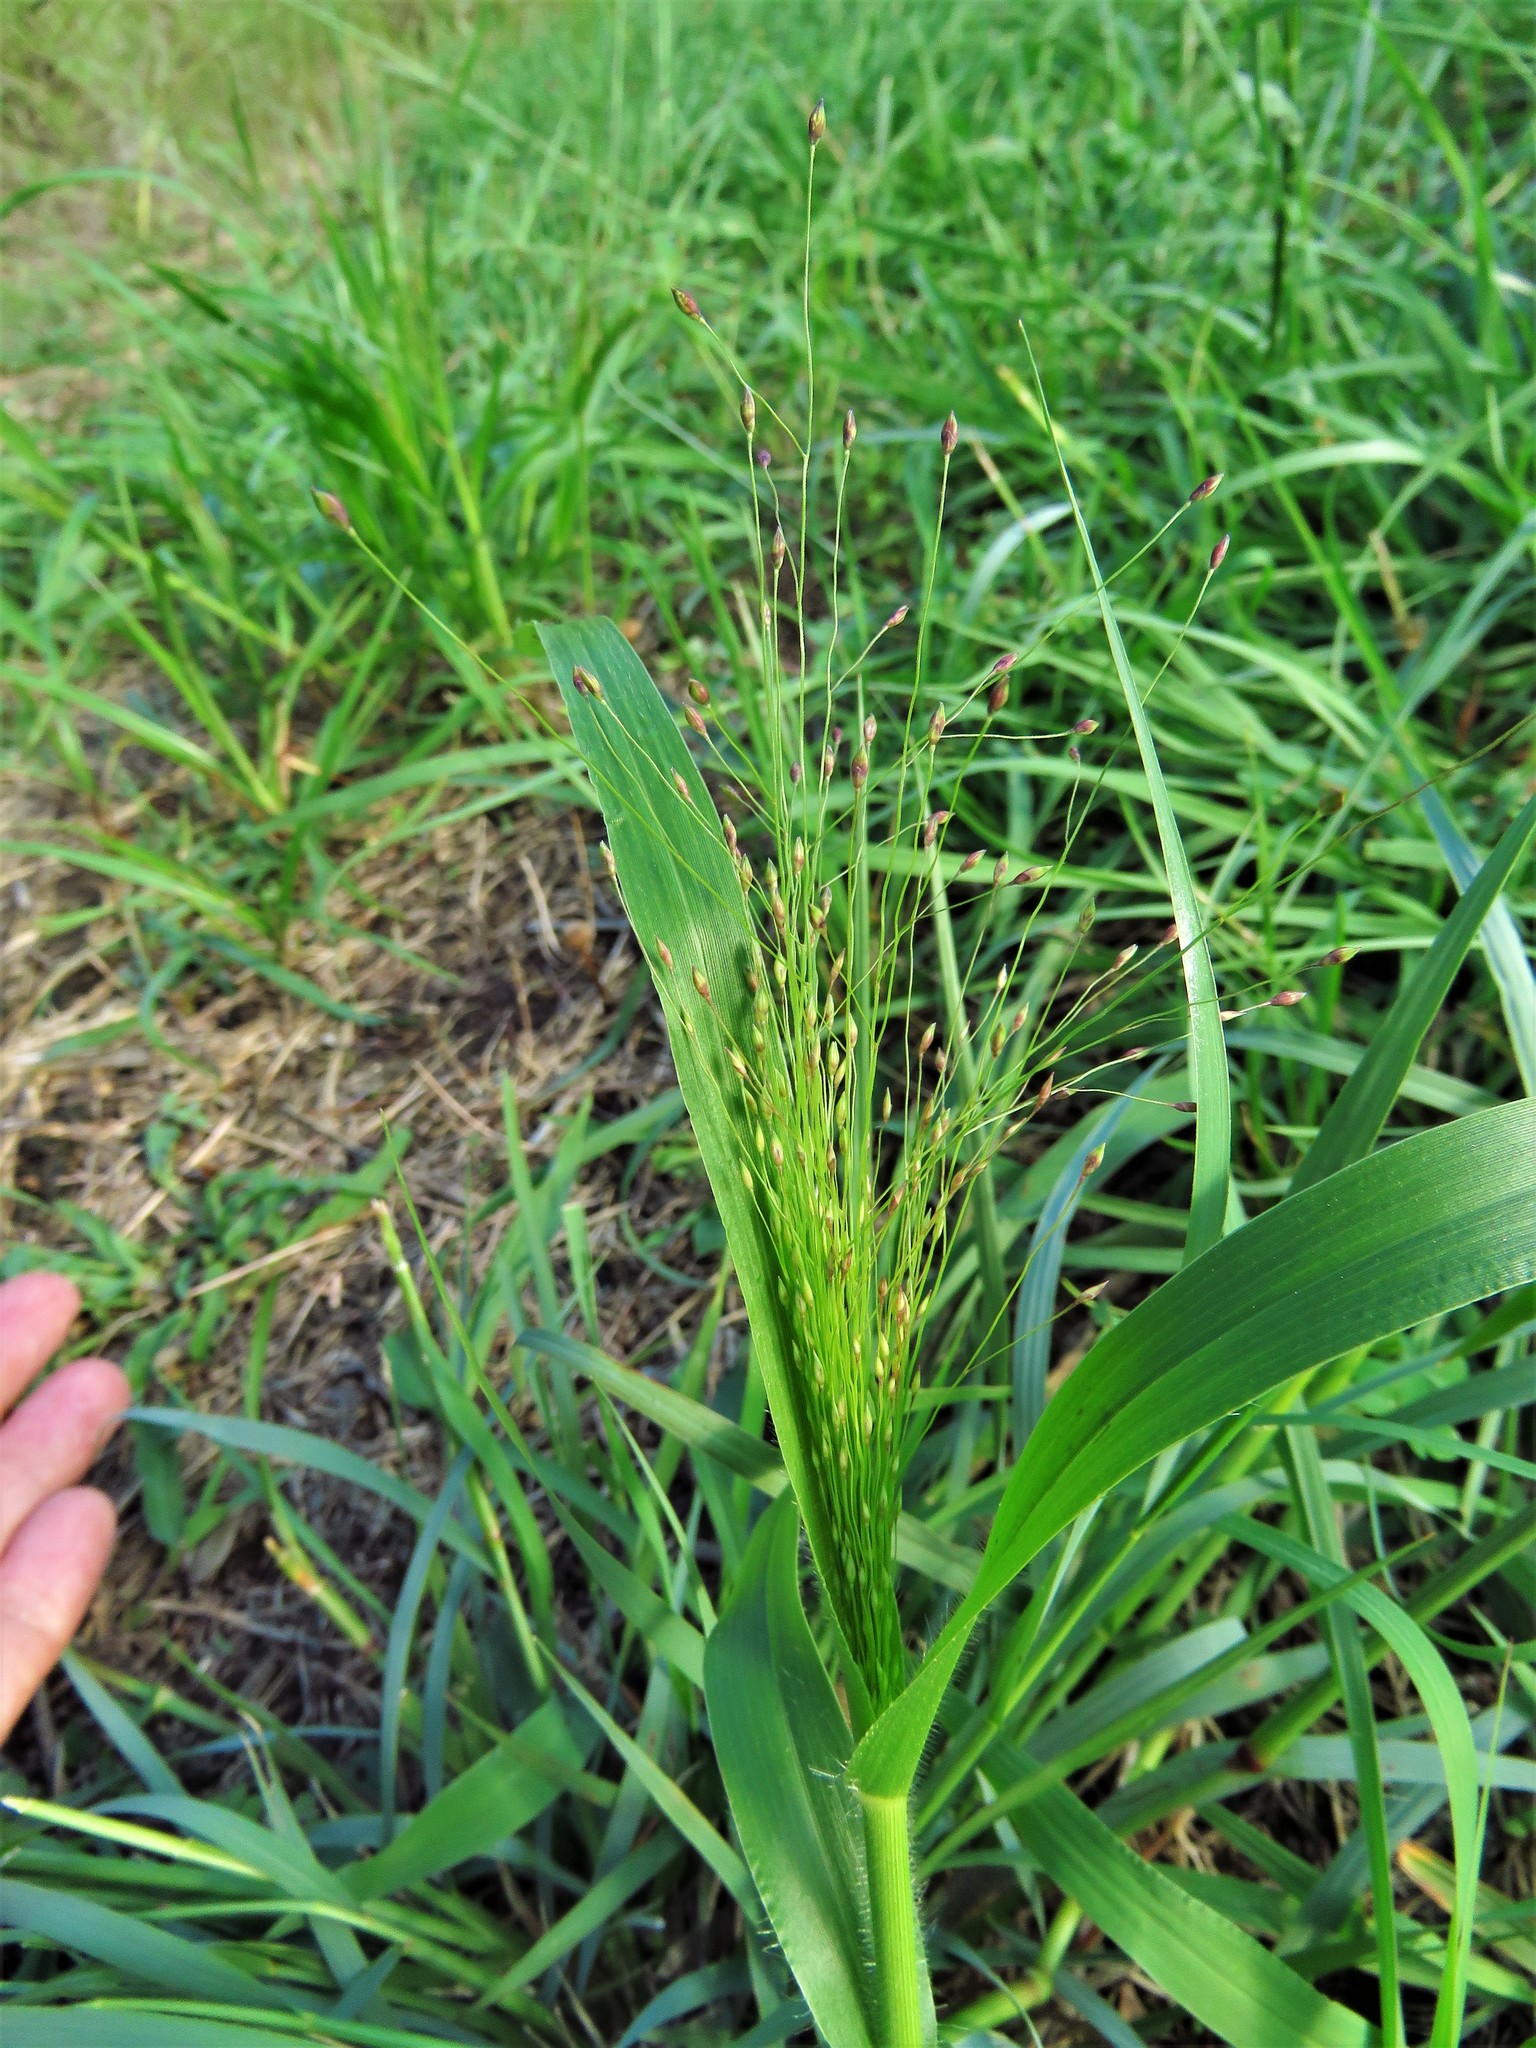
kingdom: Plantae
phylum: Tracheophyta
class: Liliopsida
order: Poales
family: Poaceae
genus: Panicum
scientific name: Panicum capillare
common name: Witch-grass
